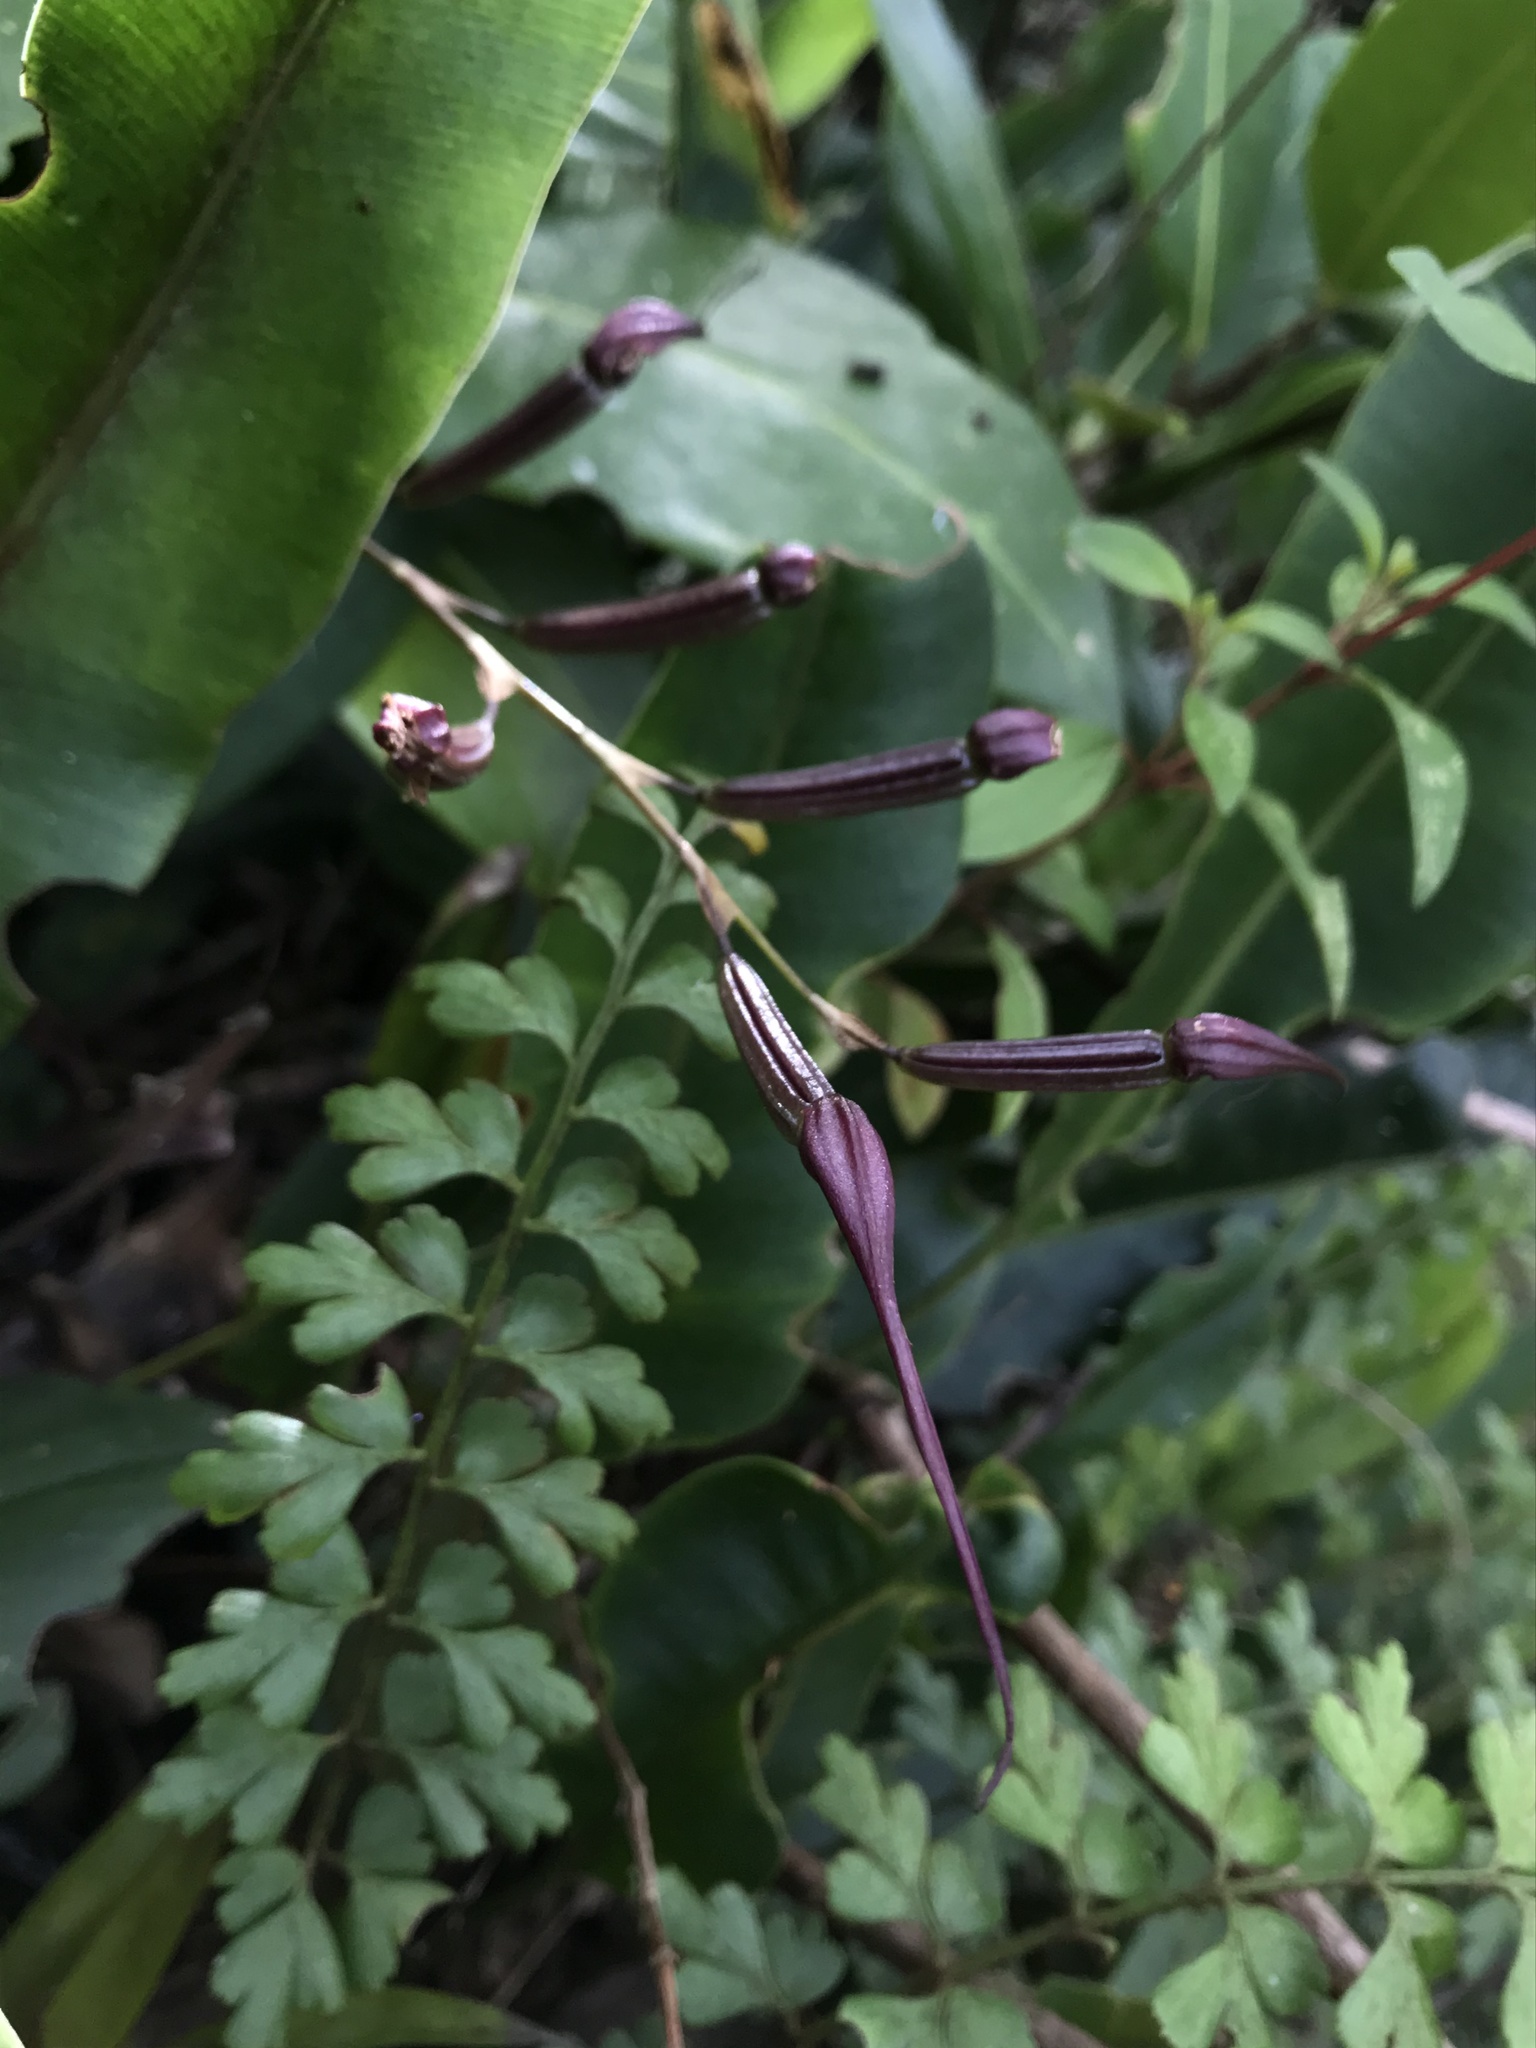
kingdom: Plantae
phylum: Tracheophyta
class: Liliopsida
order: Asparagales
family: Orchidaceae
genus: Pleurothallis
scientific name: Pleurothallis phalangifera
